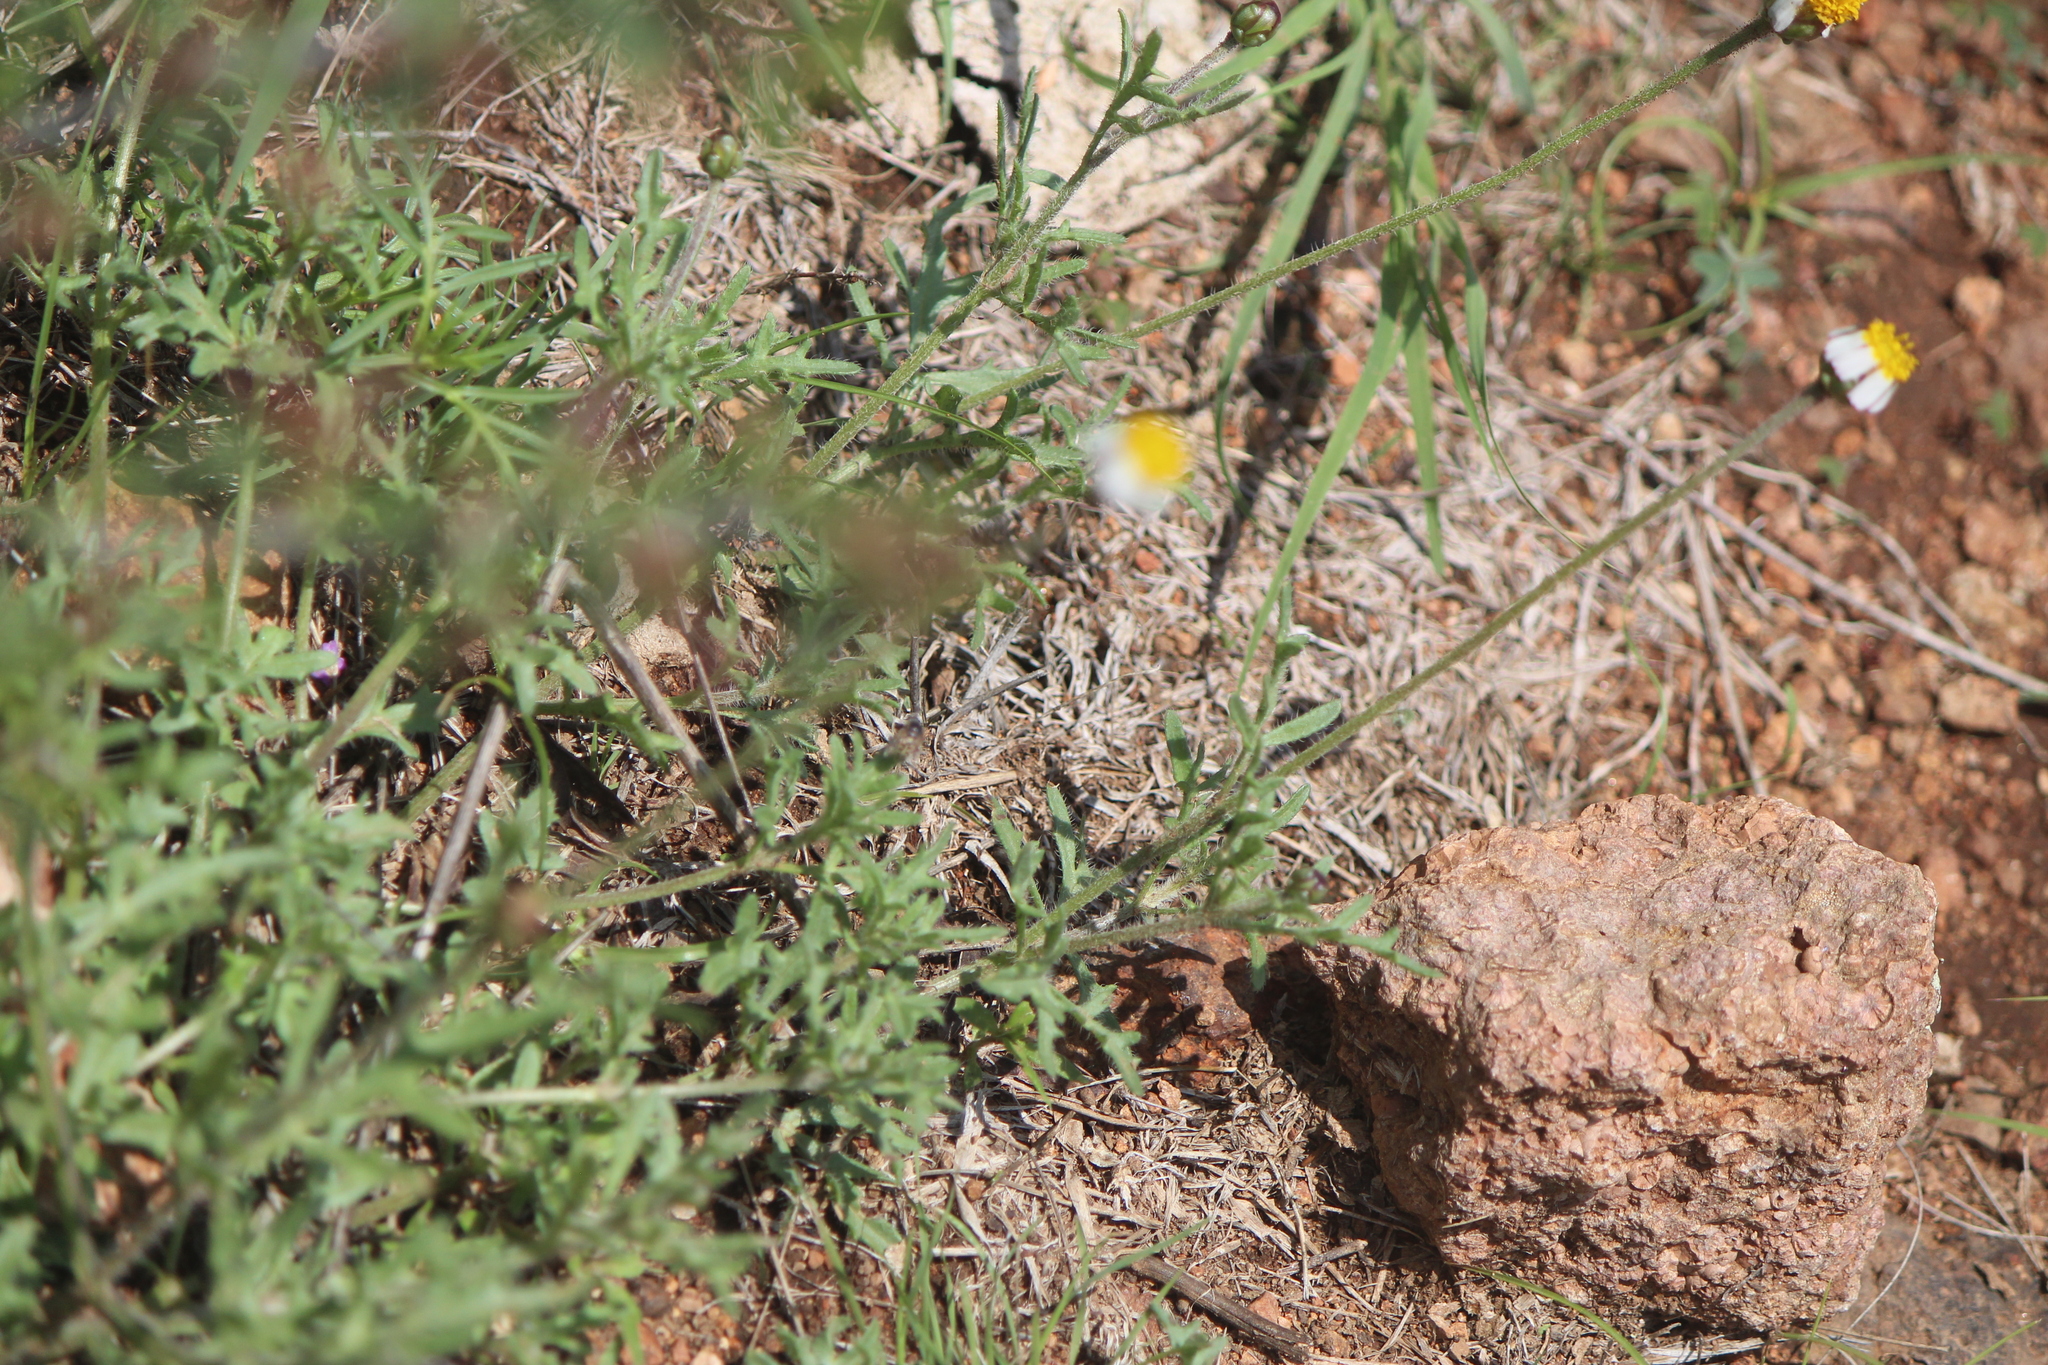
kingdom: Plantae
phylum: Tracheophyta
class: Magnoliopsida
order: Asterales
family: Asteraceae
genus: Tridax
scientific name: Tridax rosea
